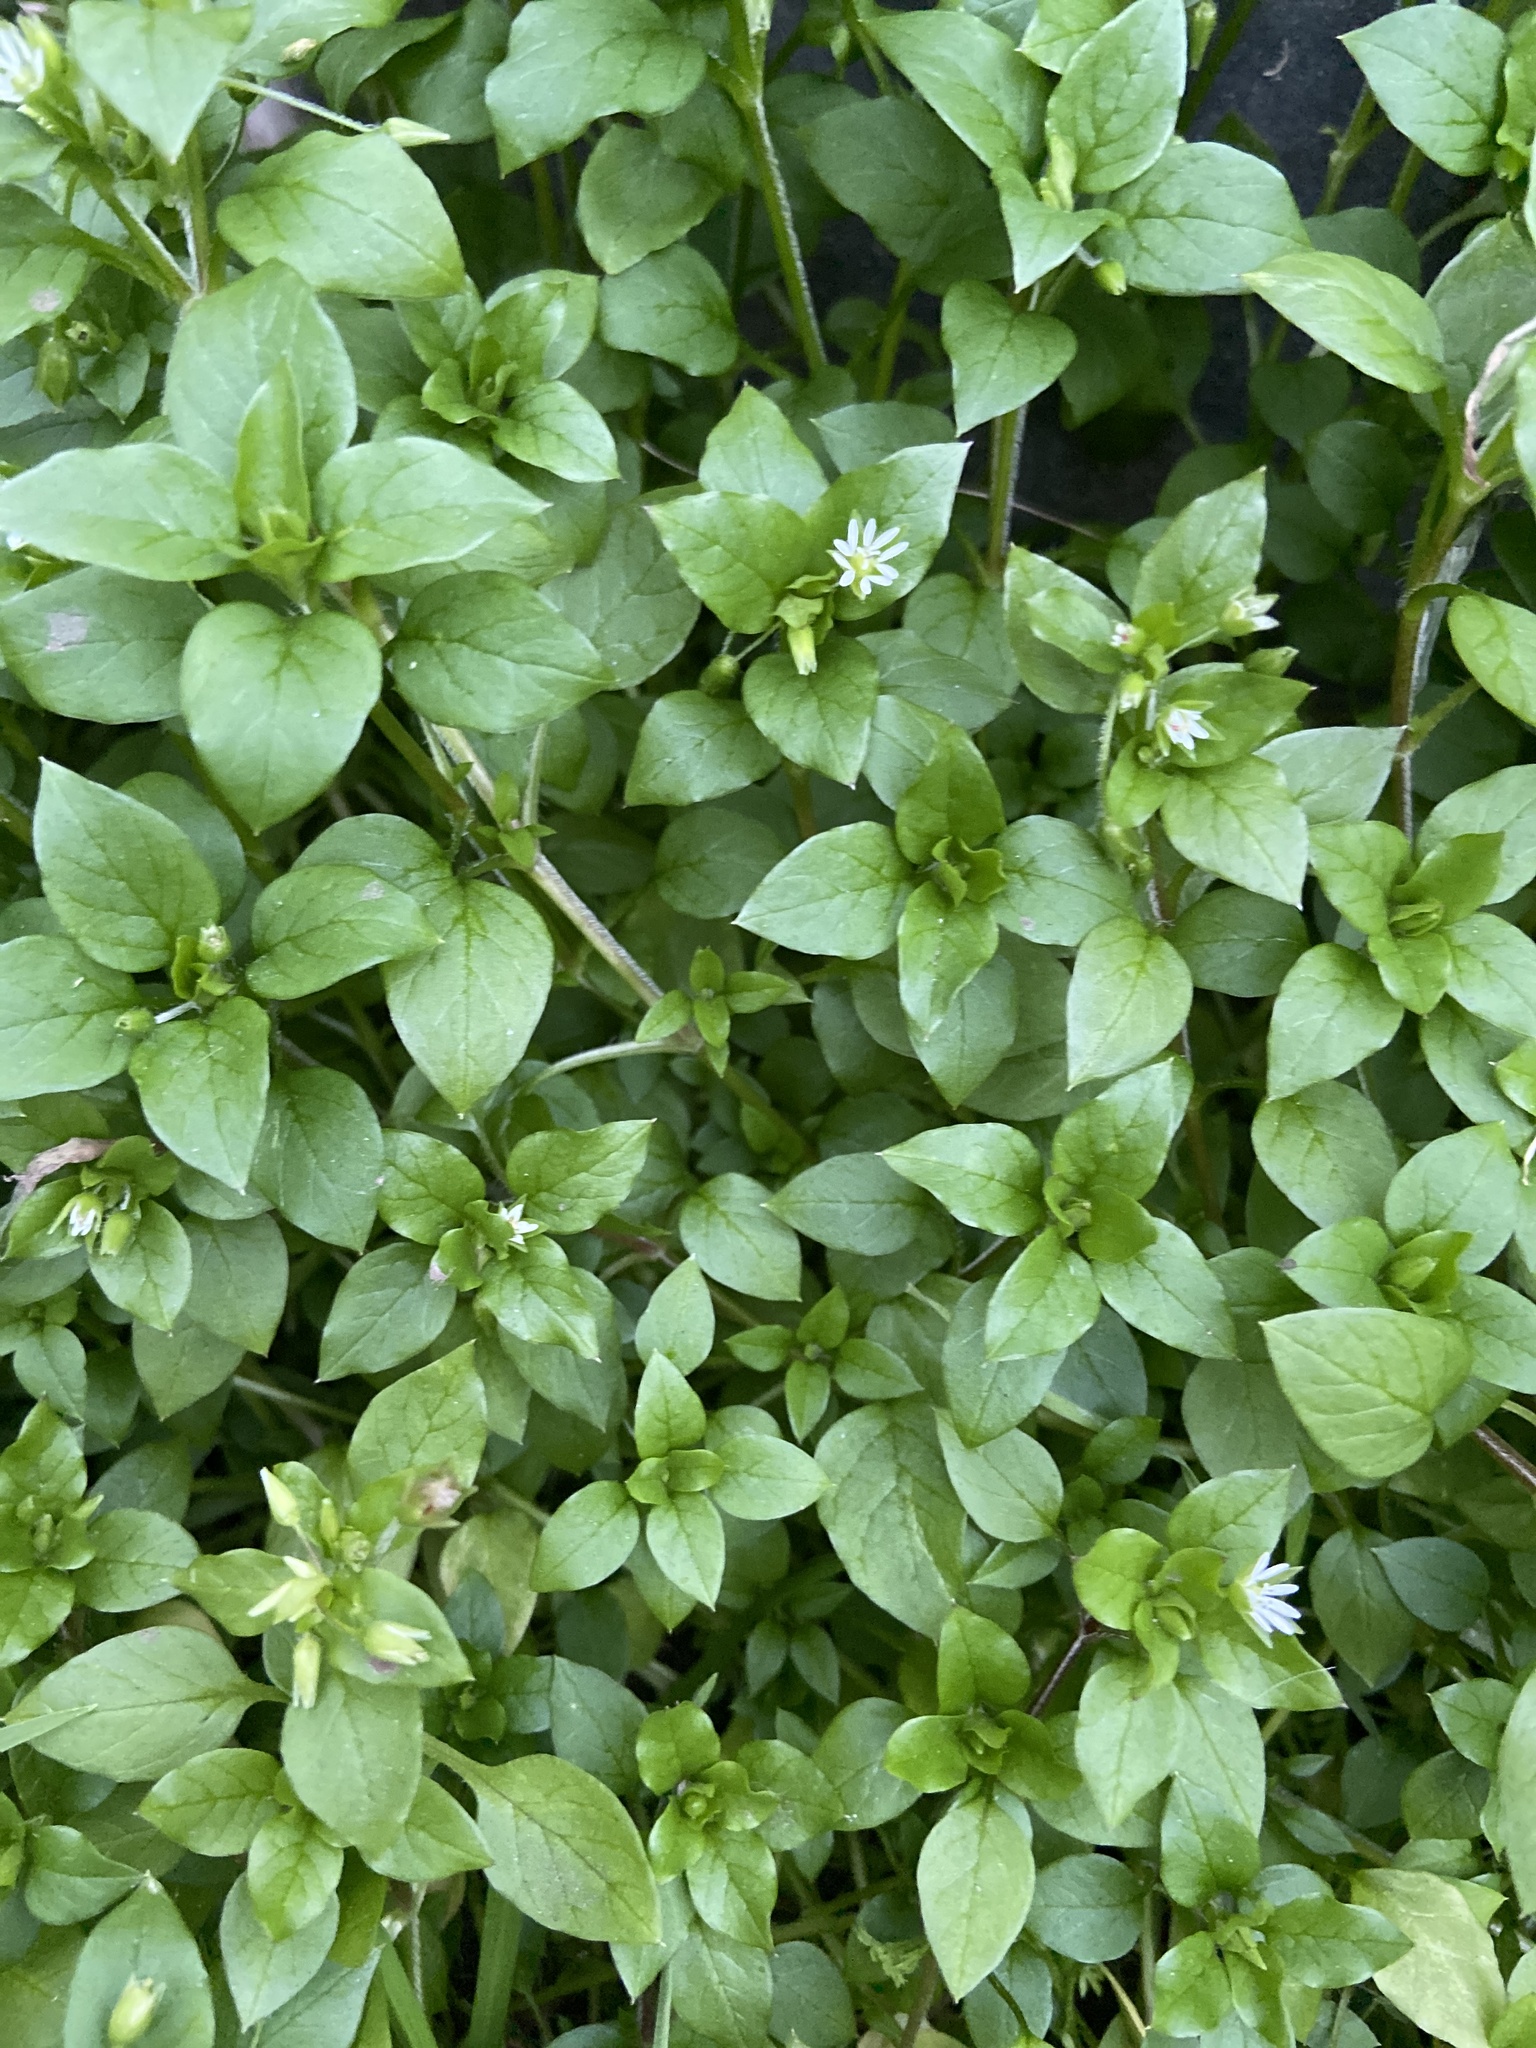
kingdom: Plantae
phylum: Tracheophyta
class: Magnoliopsida
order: Caryophyllales
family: Caryophyllaceae
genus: Stellaria
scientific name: Stellaria media
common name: Common chickweed
